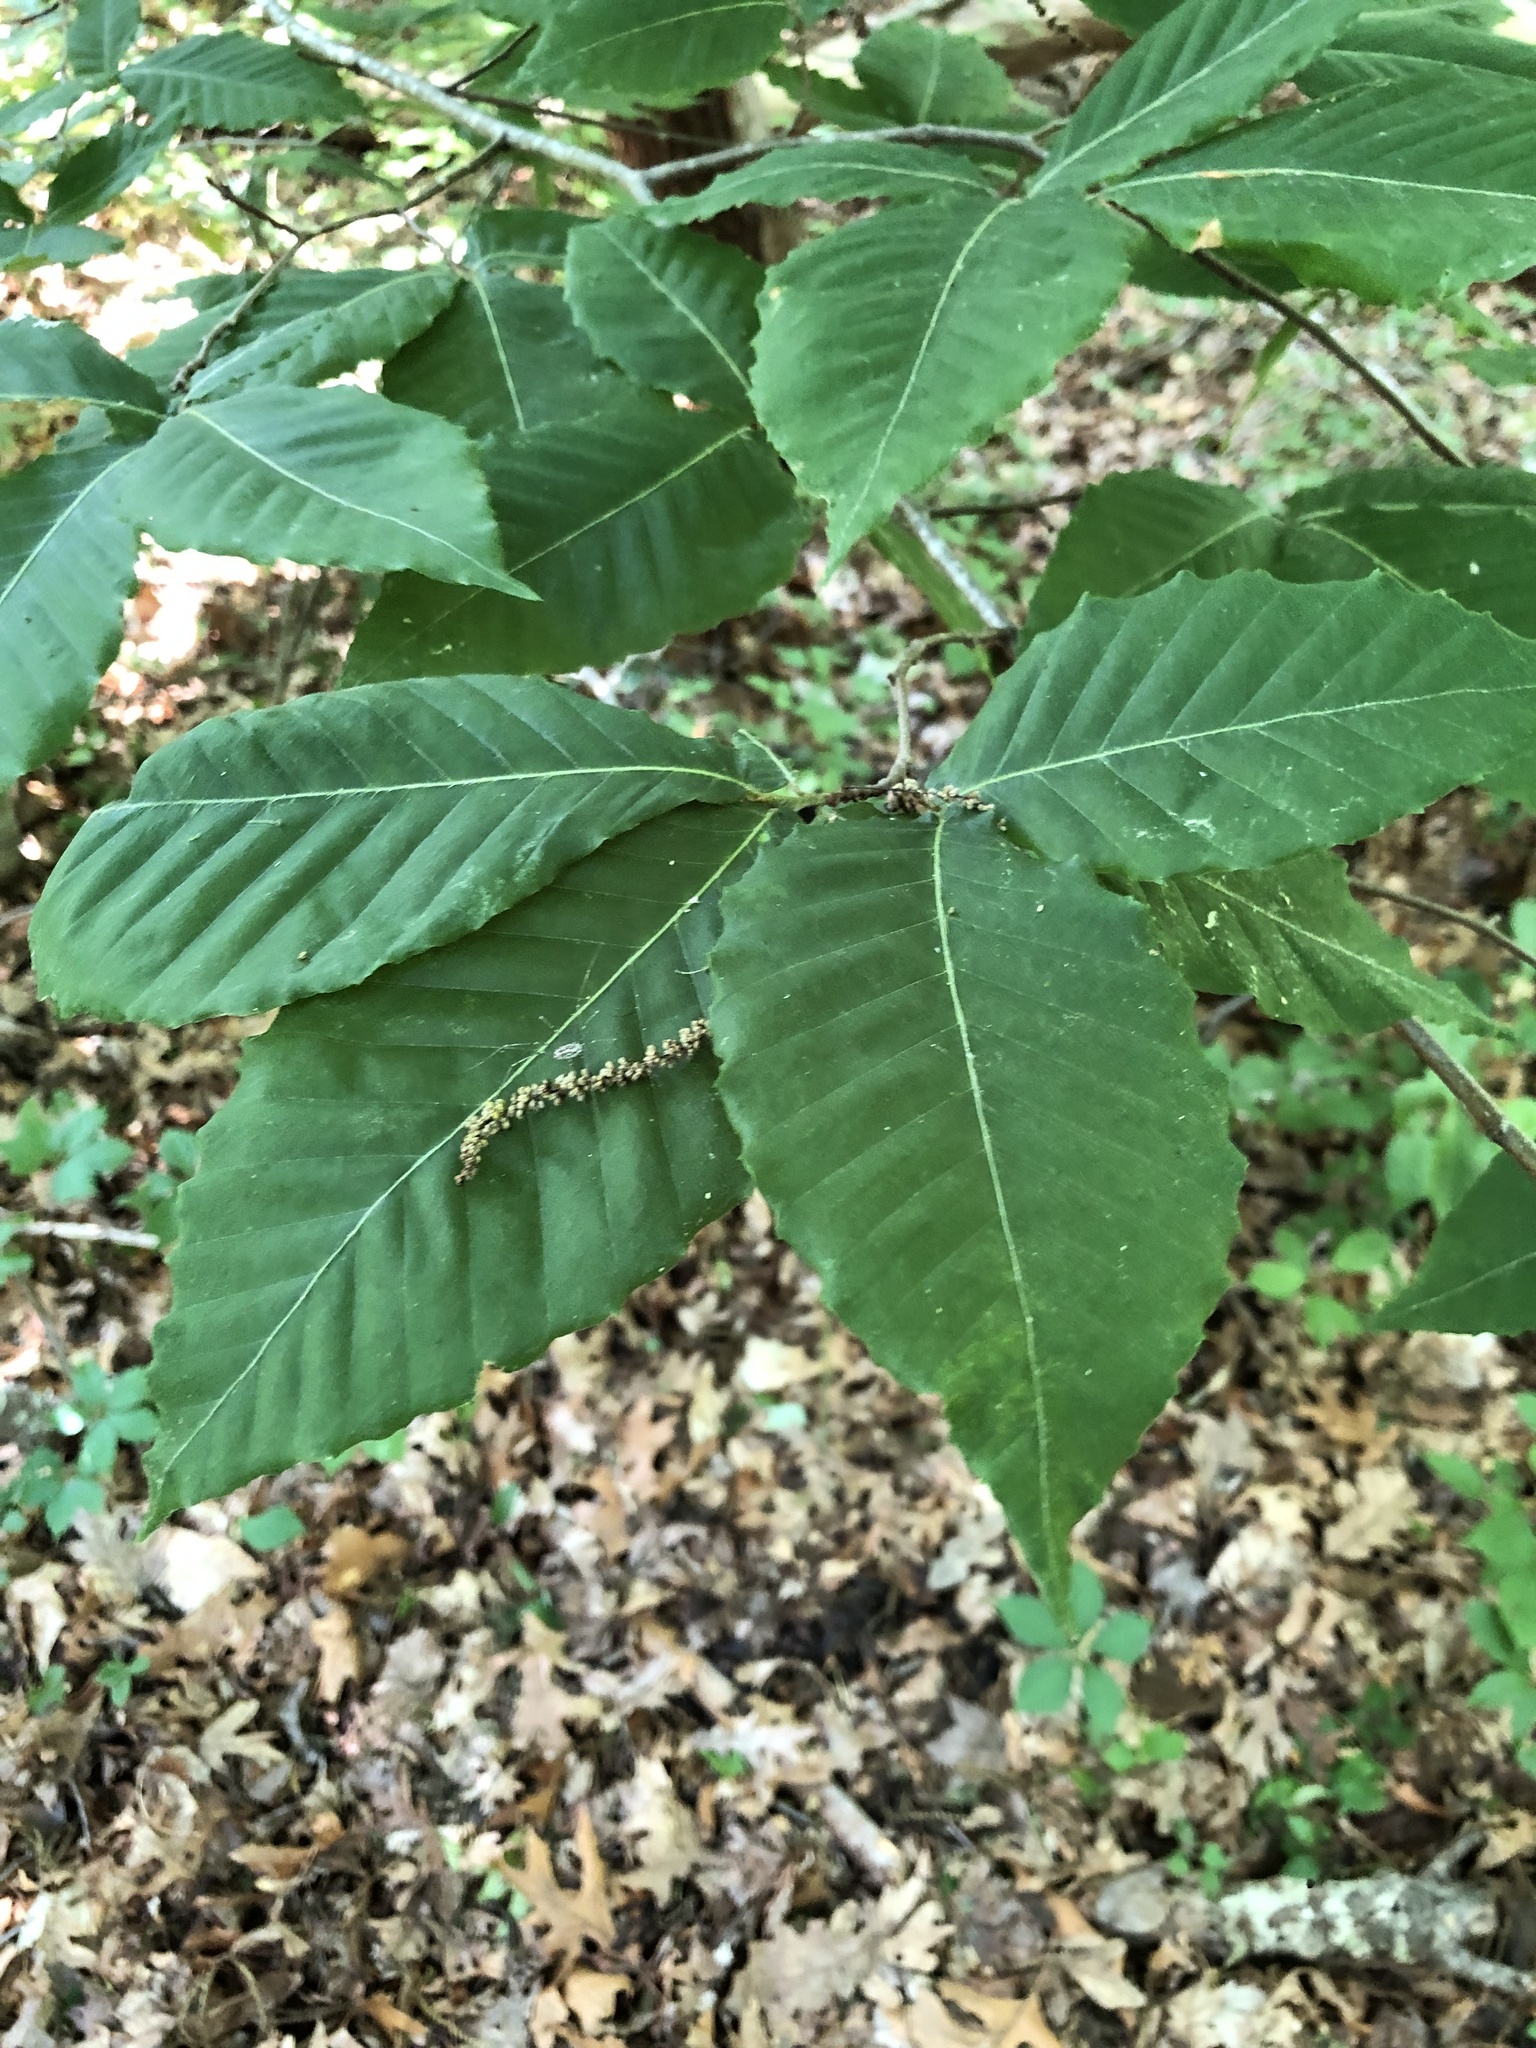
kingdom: Plantae
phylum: Tracheophyta
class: Magnoliopsida
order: Fagales
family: Fagaceae
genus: Fagus
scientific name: Fagus grandifolia
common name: American beech
